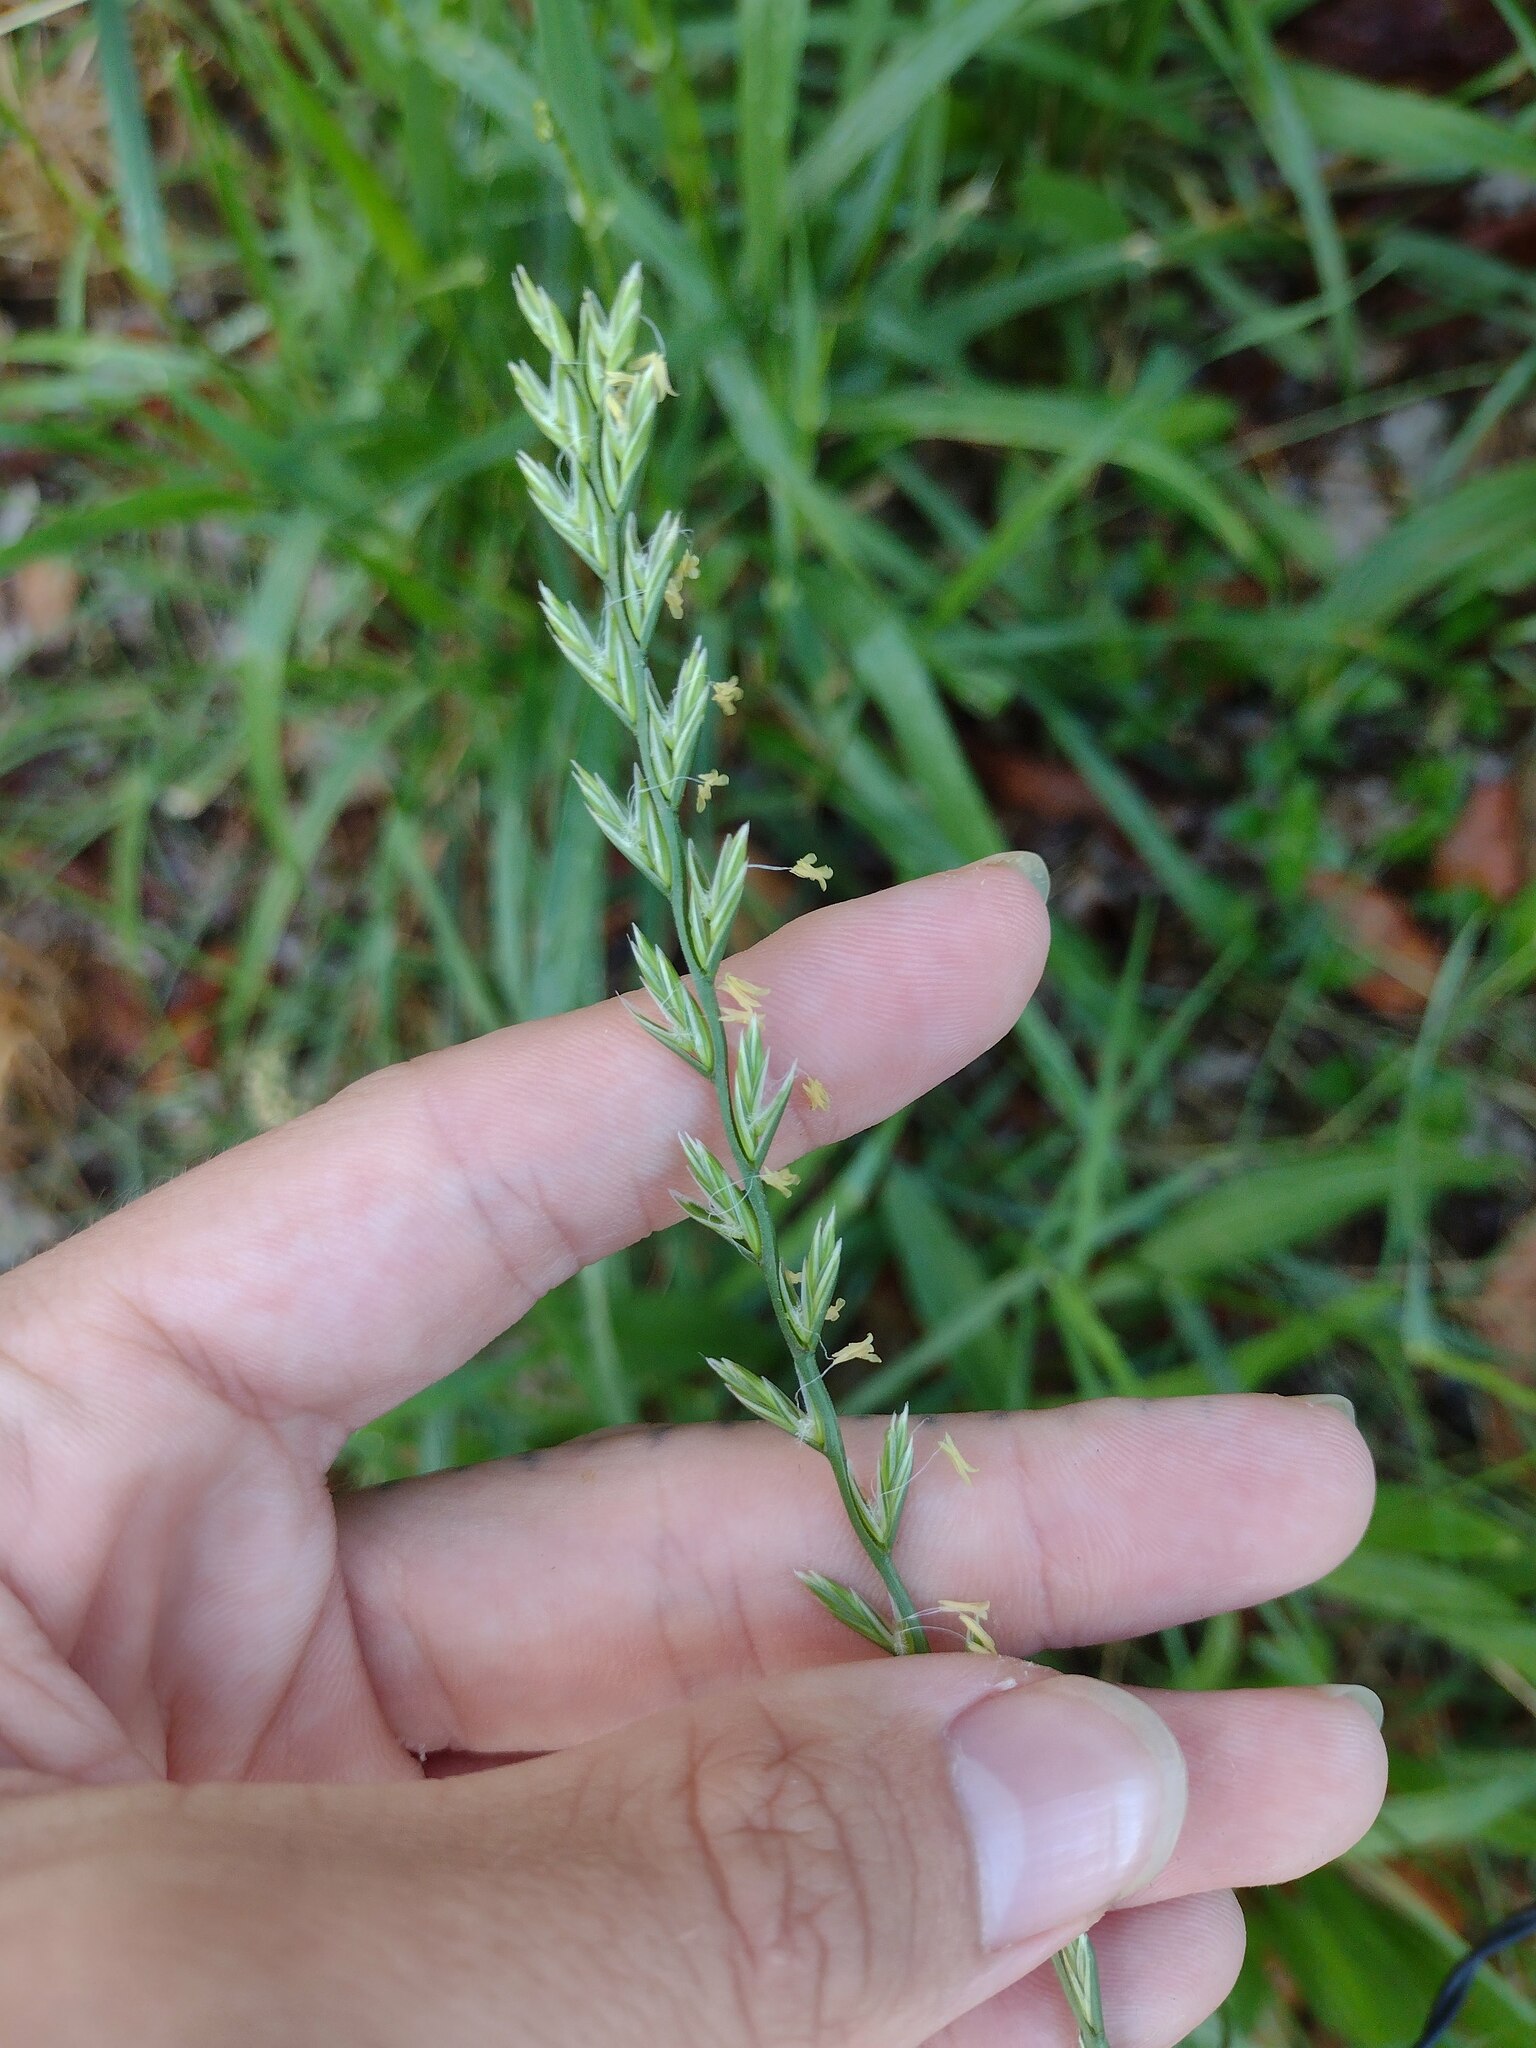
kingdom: Plantae
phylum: Tracheophyta
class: Liliopsida
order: Poales
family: Poaceae
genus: Lolium
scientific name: Lolium perenne
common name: Perennial ryegrass
